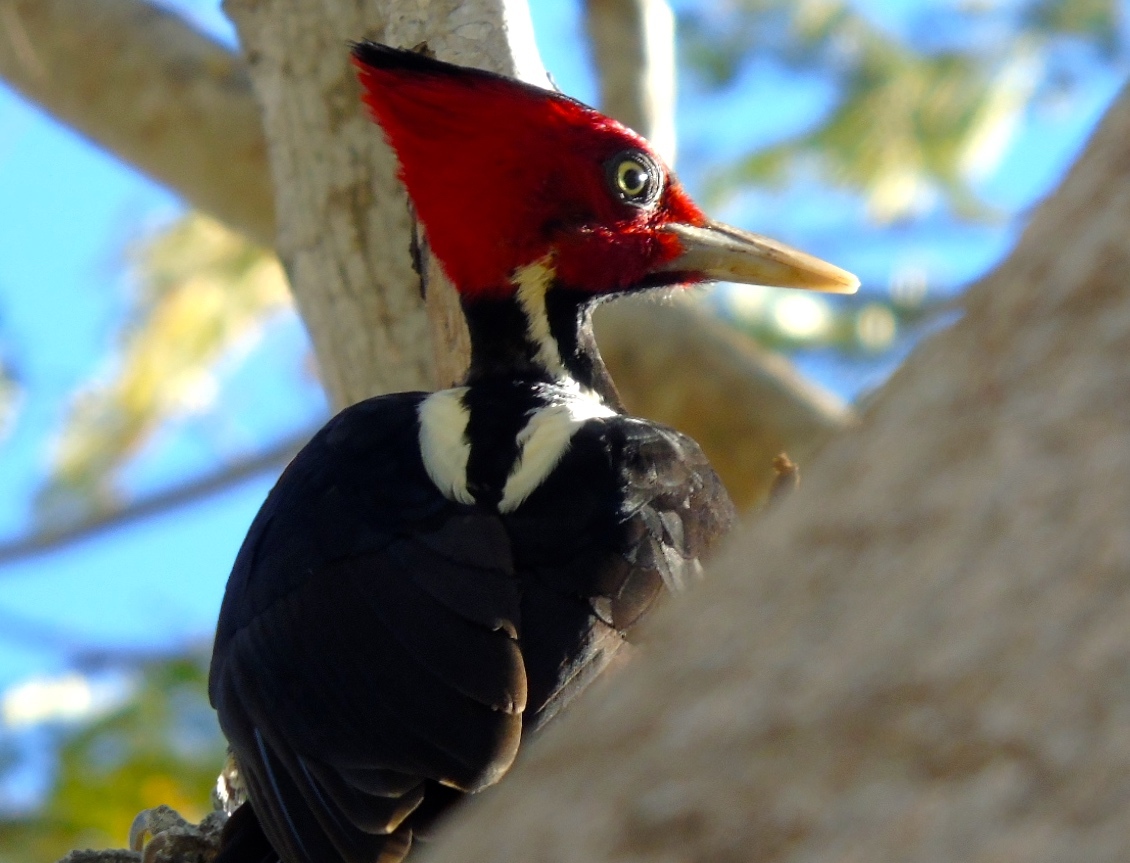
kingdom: Animalia
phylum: Chordata
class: Aves
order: Piciformes
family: Picidae
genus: Campephilus
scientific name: Campephilus guatemalensis
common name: Pale-billed woodpecker
